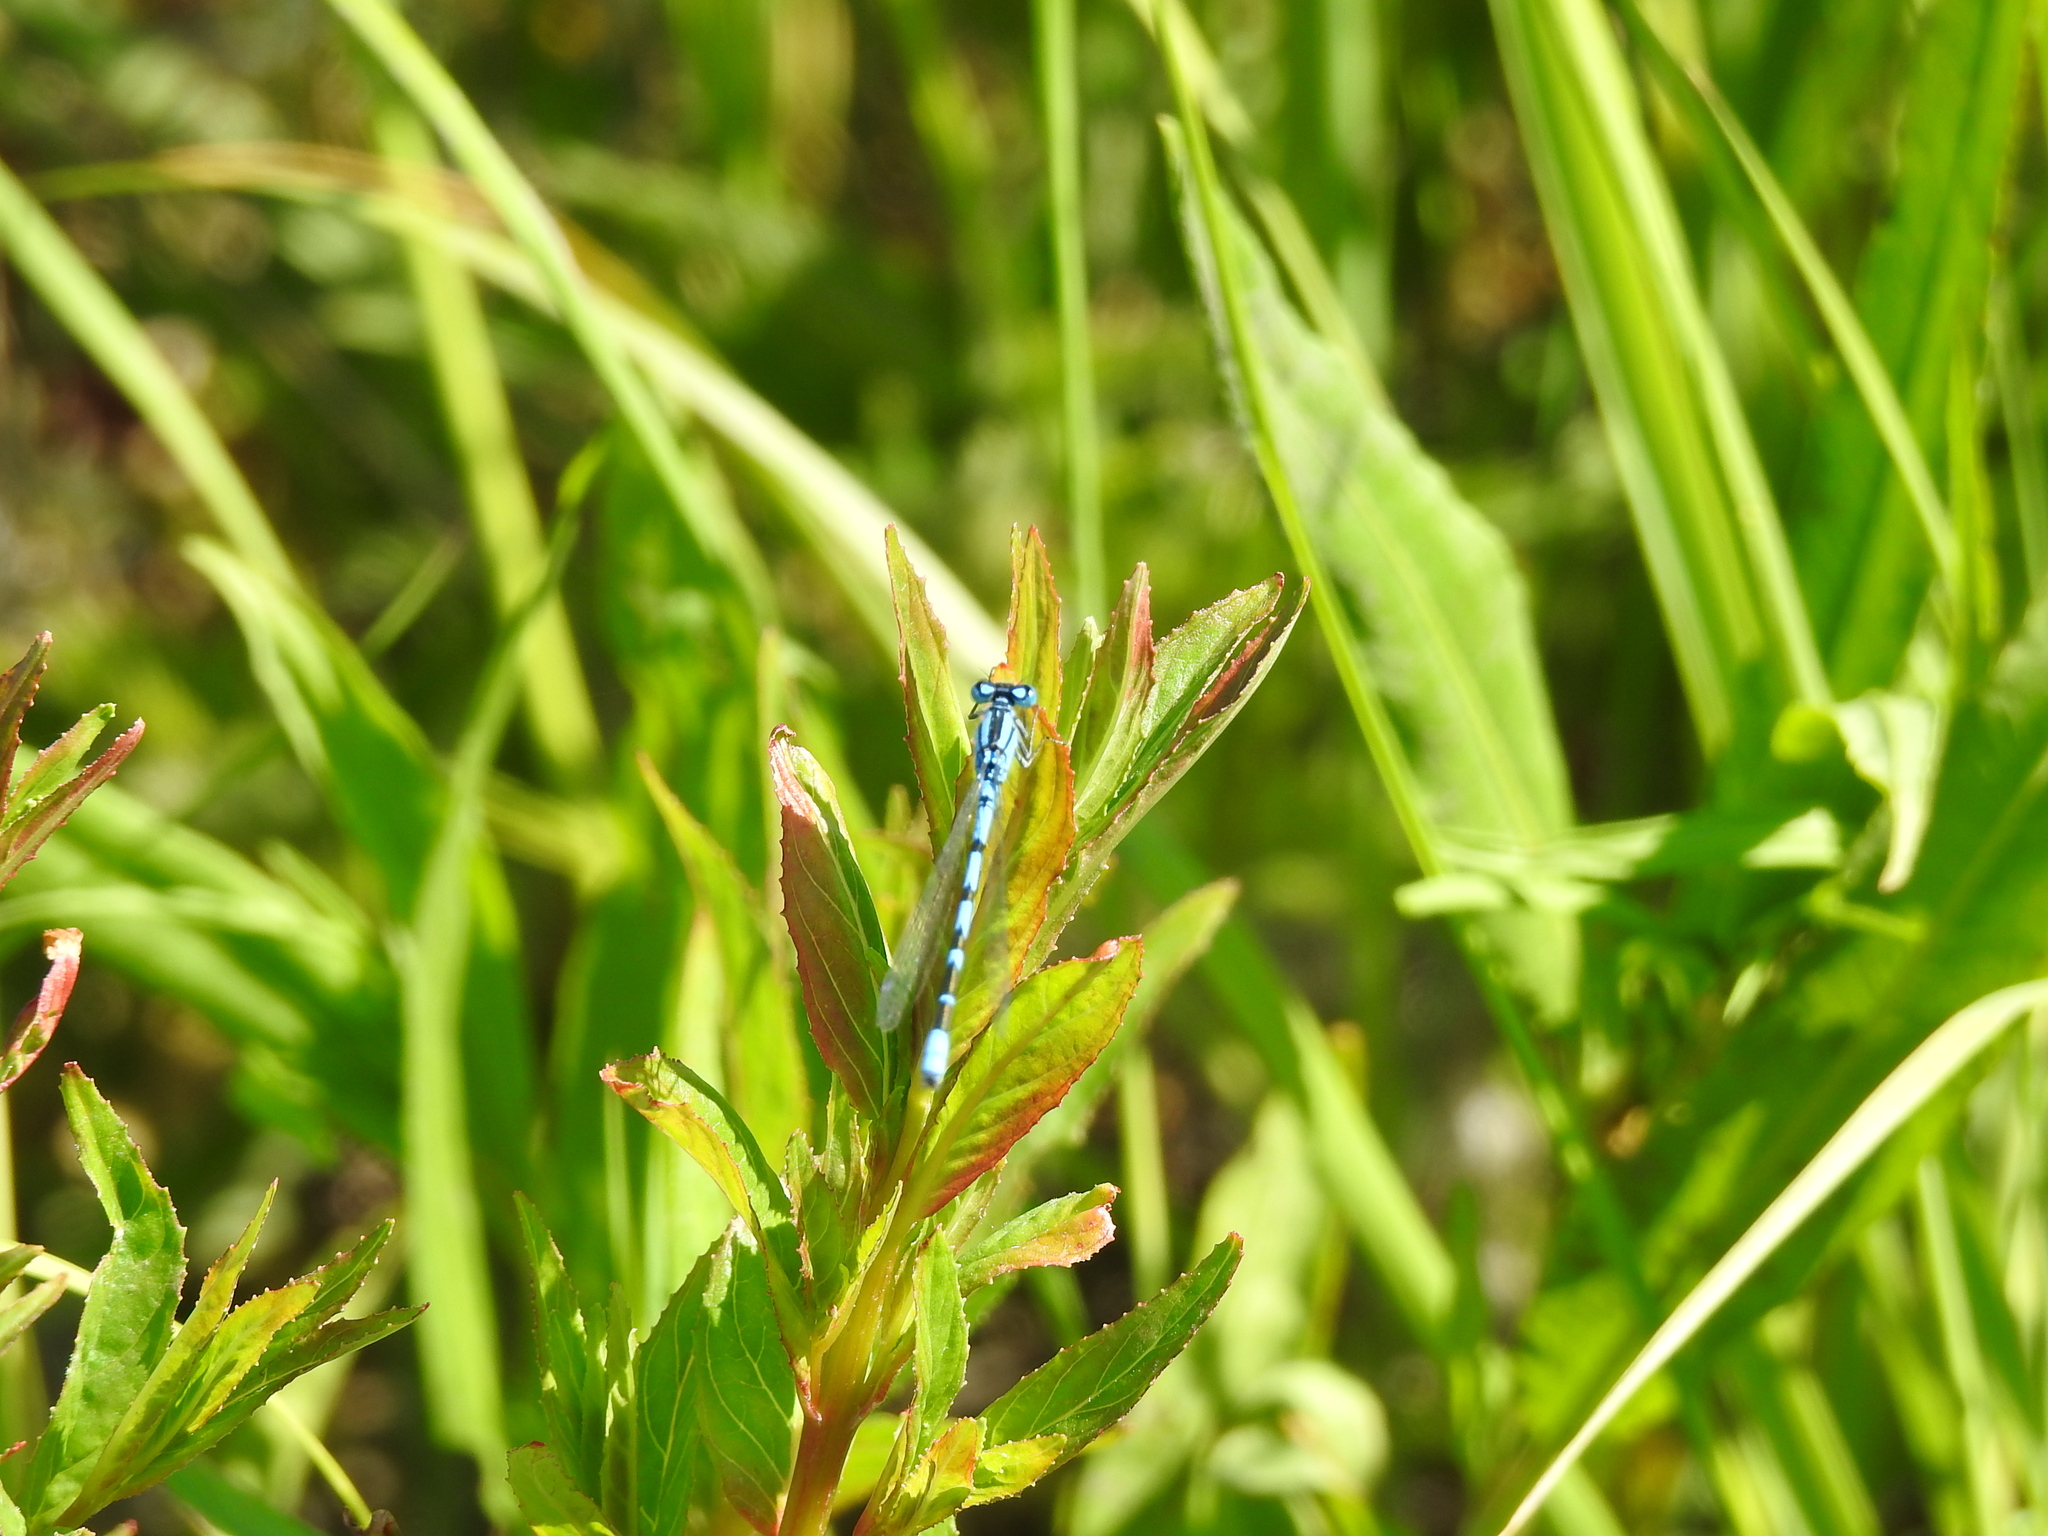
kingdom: Animalia
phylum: Arthropoda
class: Insecta
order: Odonata
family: Coenagrionidae
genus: Enallagma
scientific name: Enallagma cyathigerum
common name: Common blue damselfly
